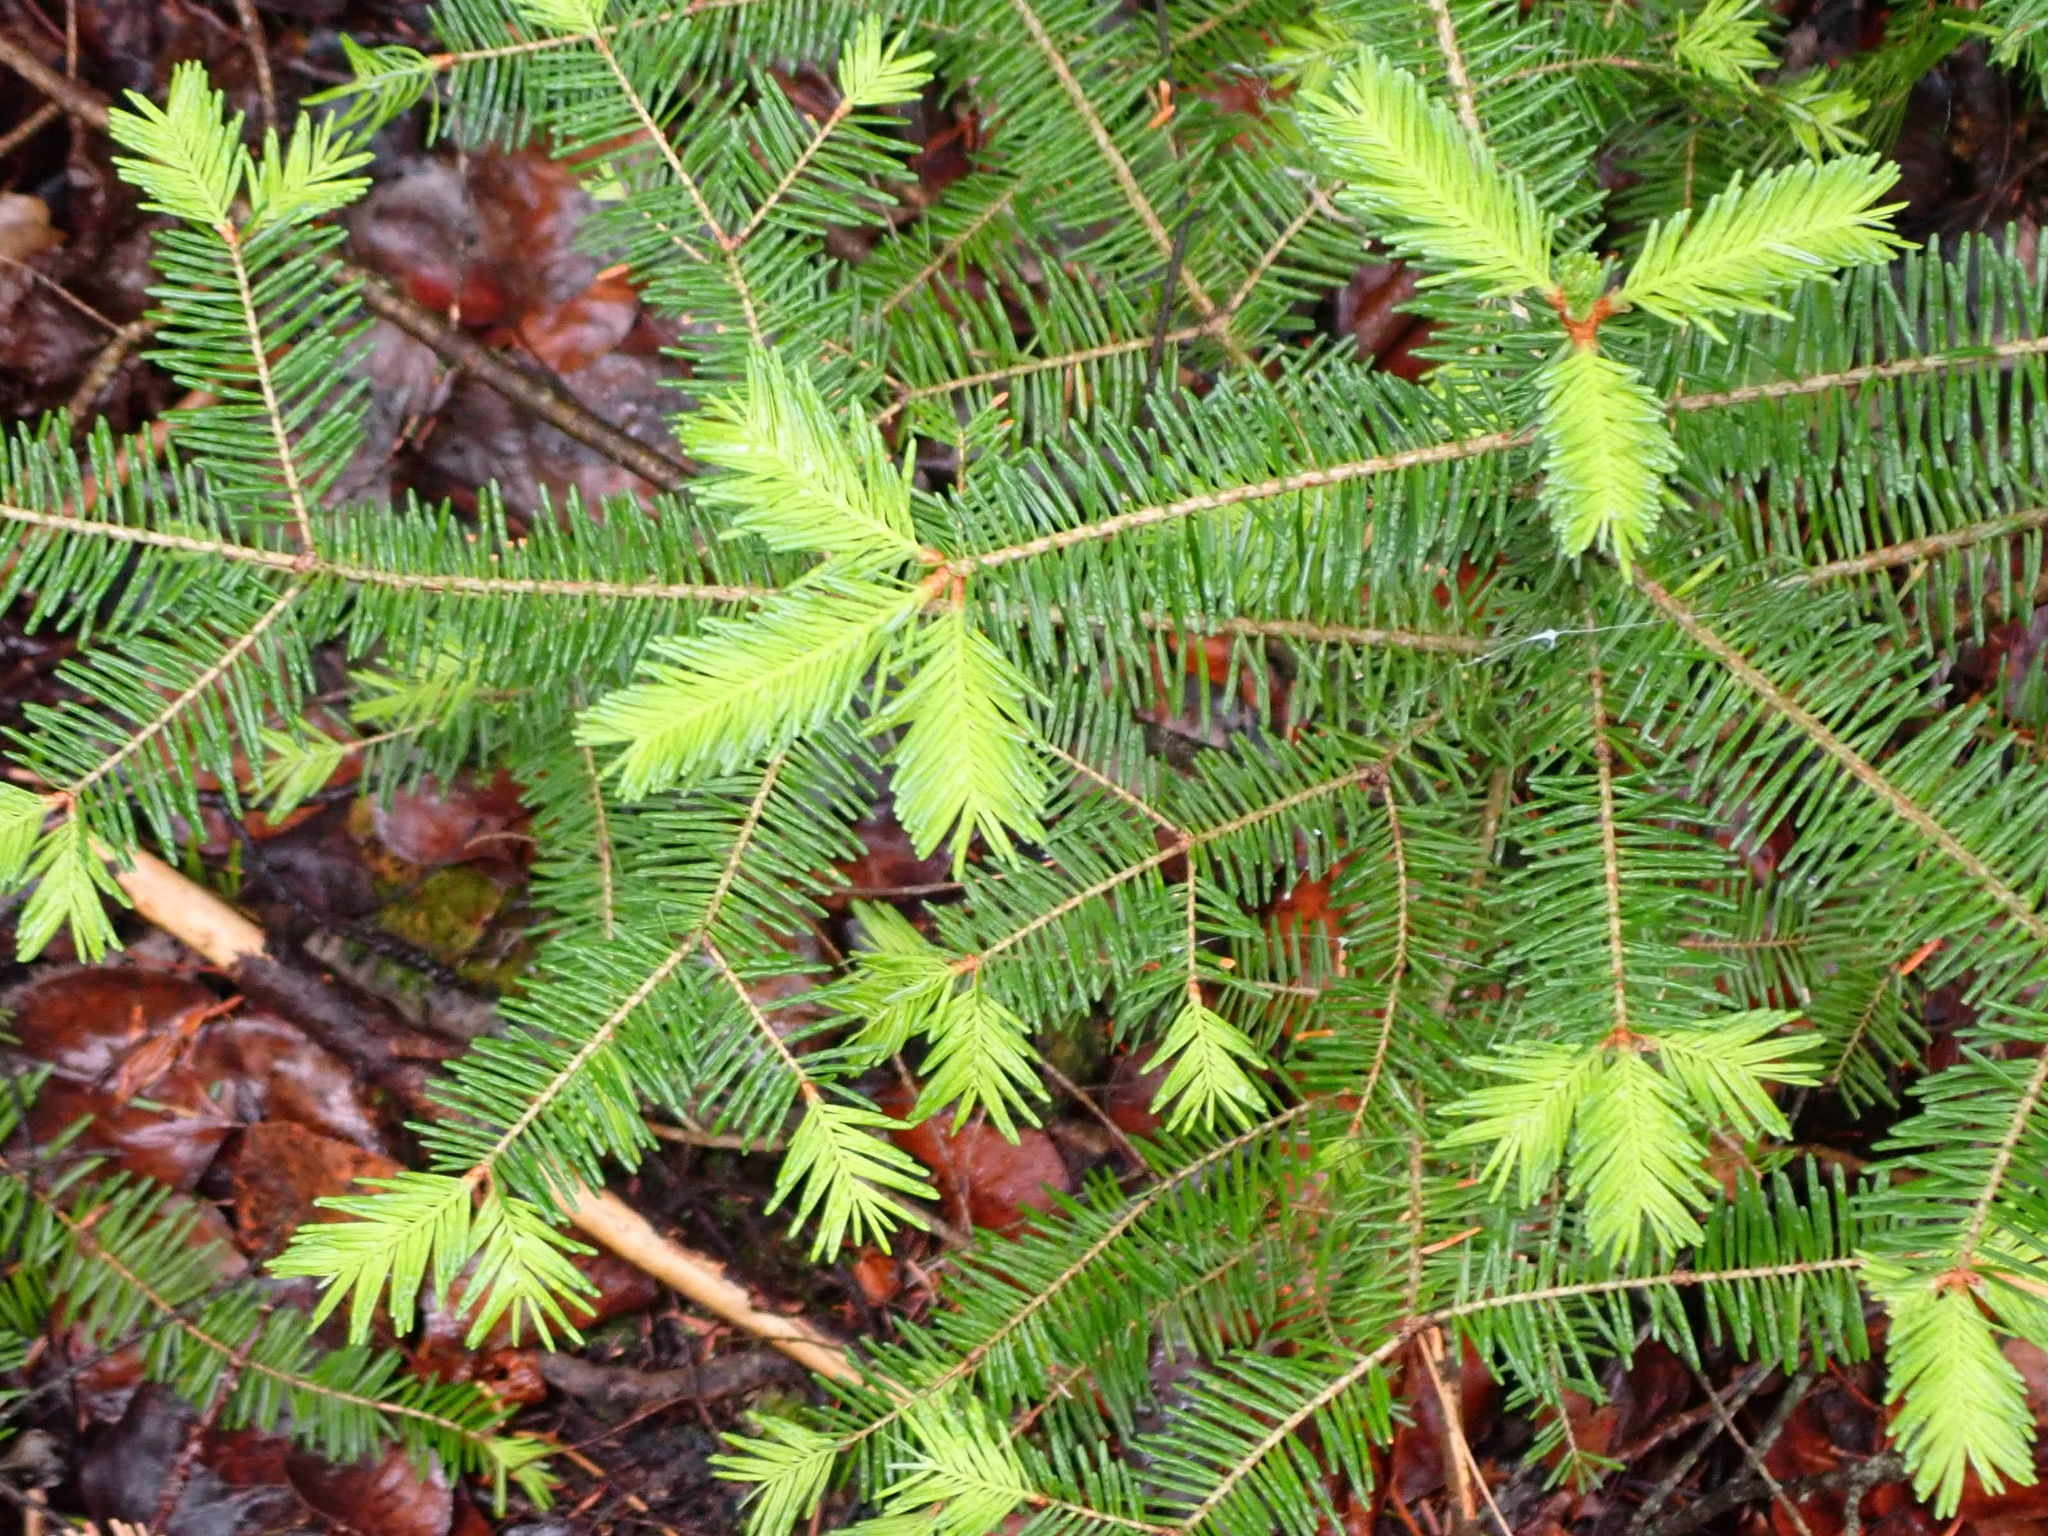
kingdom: Plantae
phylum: Tracheophyta
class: Pinopsida
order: Pinales
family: Pinaceae
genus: Abies
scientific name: Abies balsamea
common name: Balsam fir
